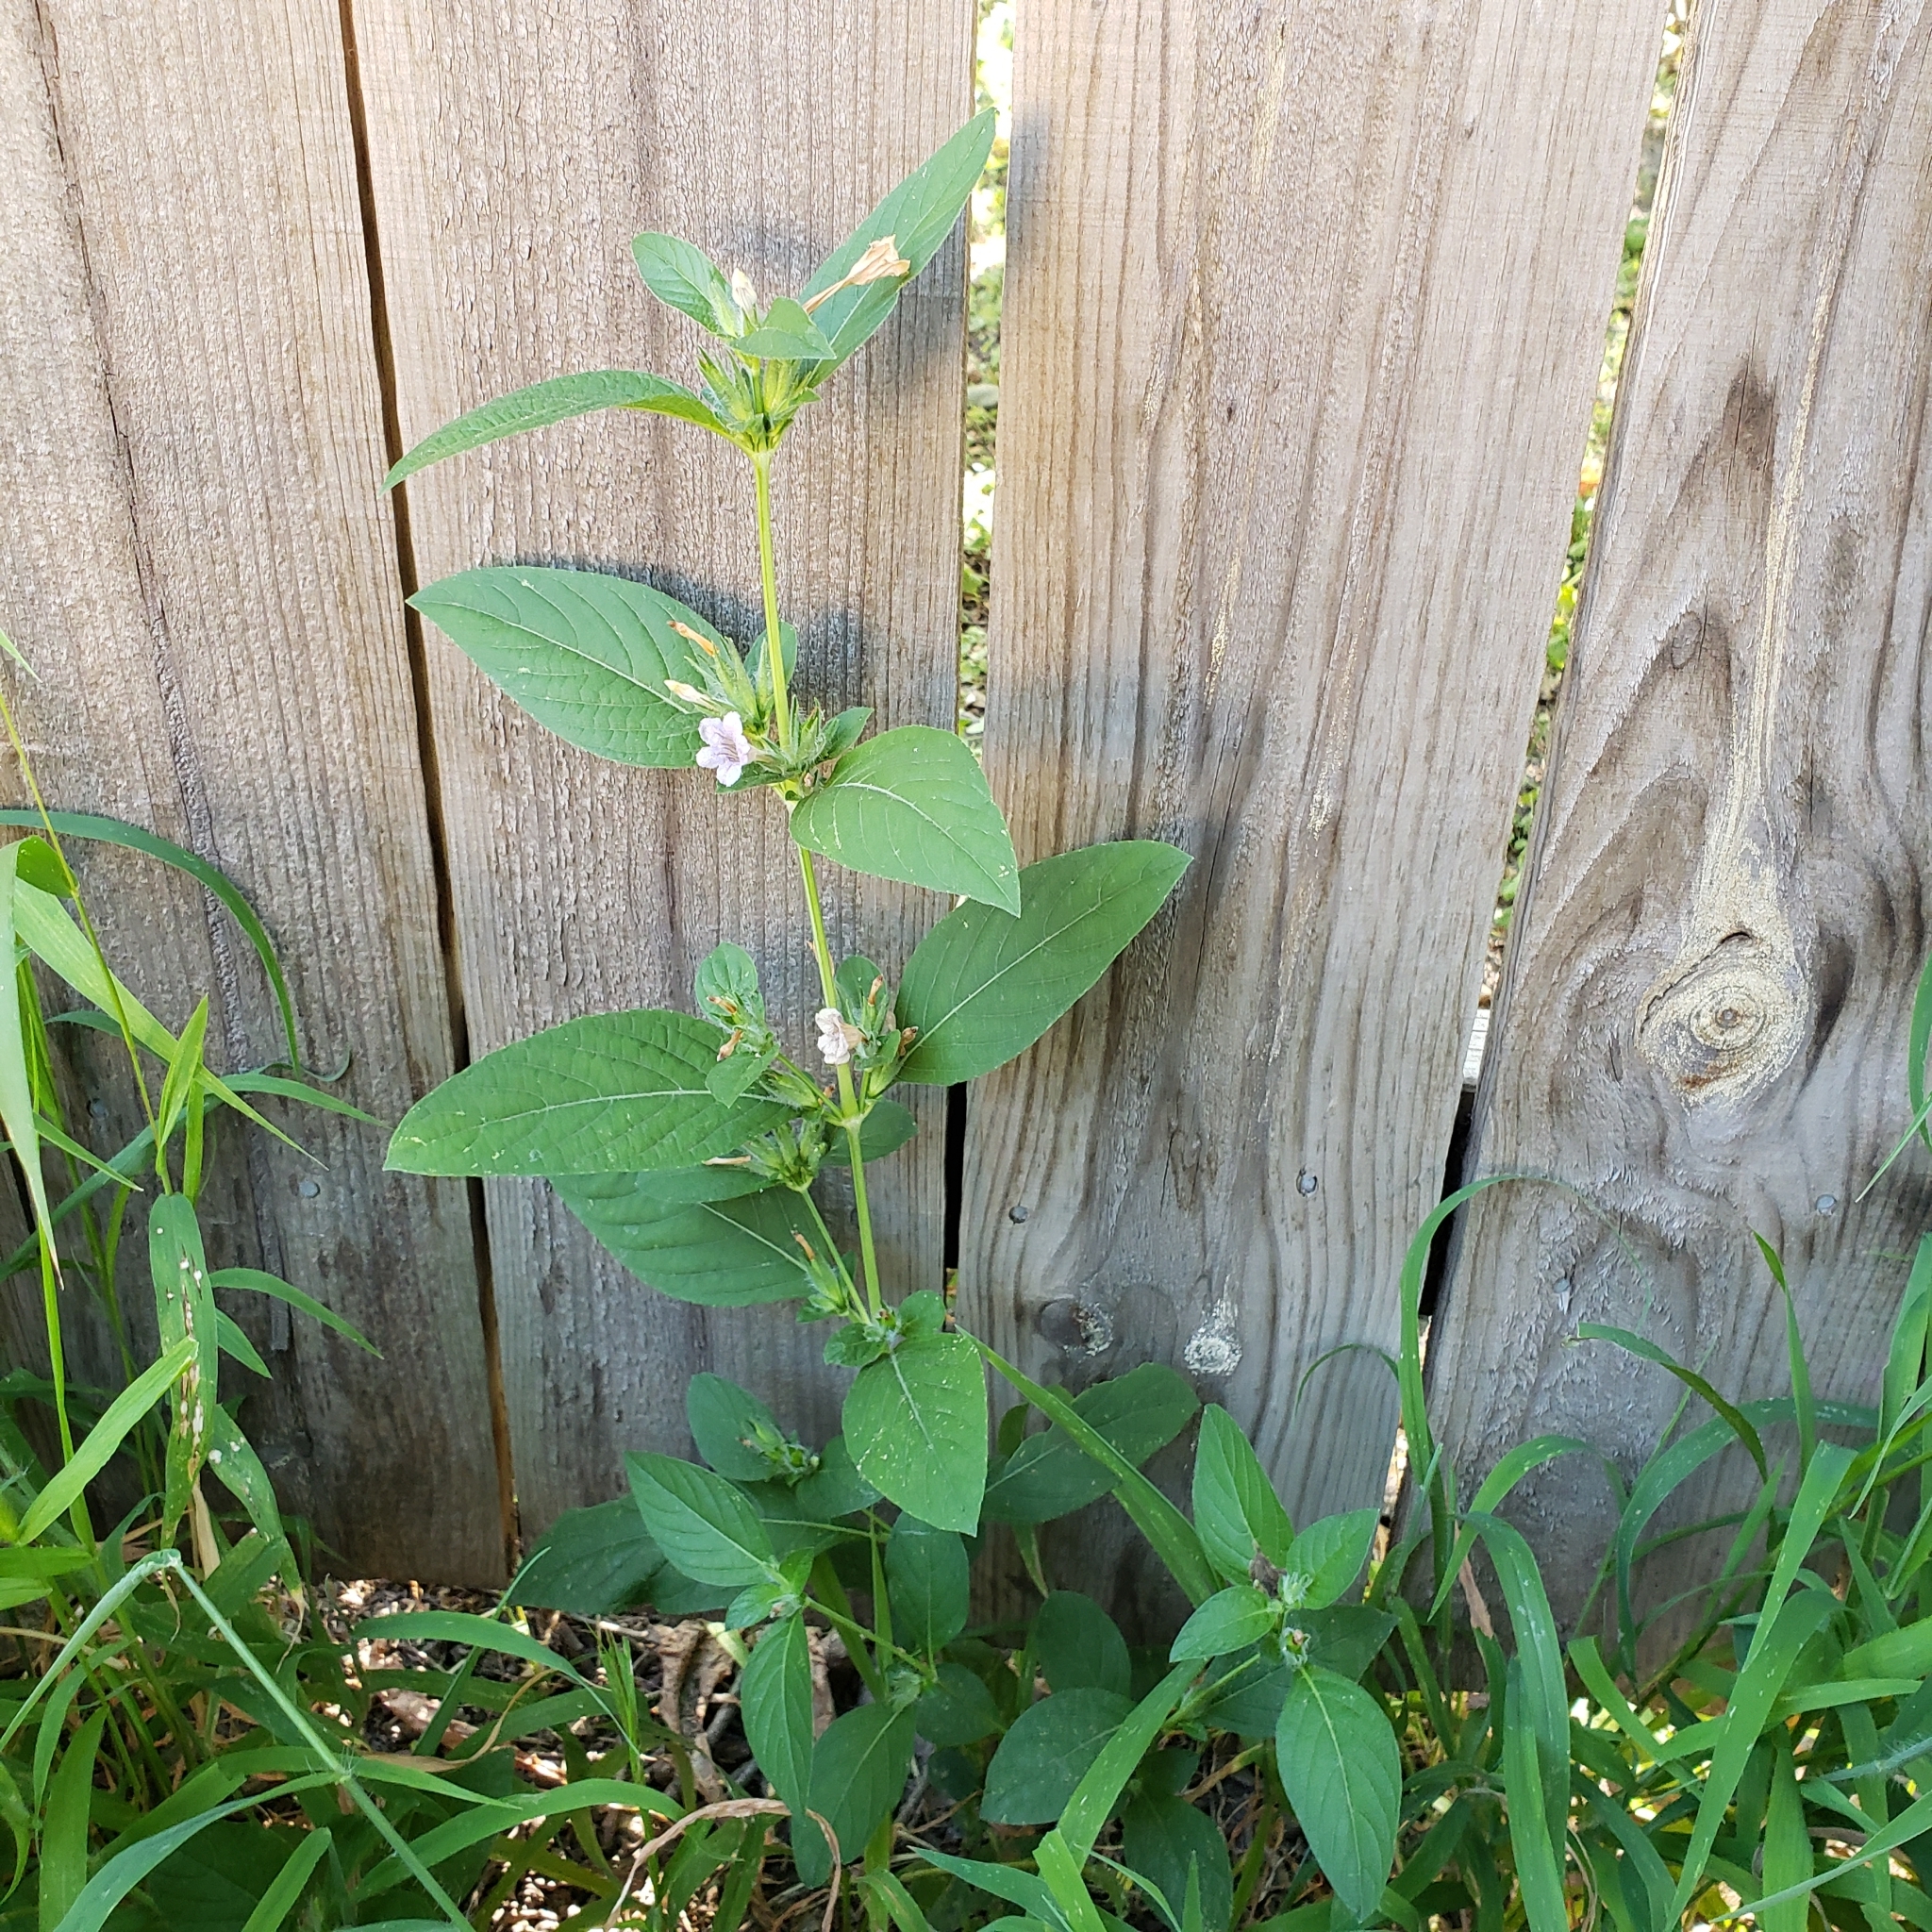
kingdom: Plantae
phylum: Tracheophyta
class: Magnoliopsida
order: Lamiales
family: Acanthaceae
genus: Ruellia
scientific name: Ruellia strepens
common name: Limestone wild petunia
